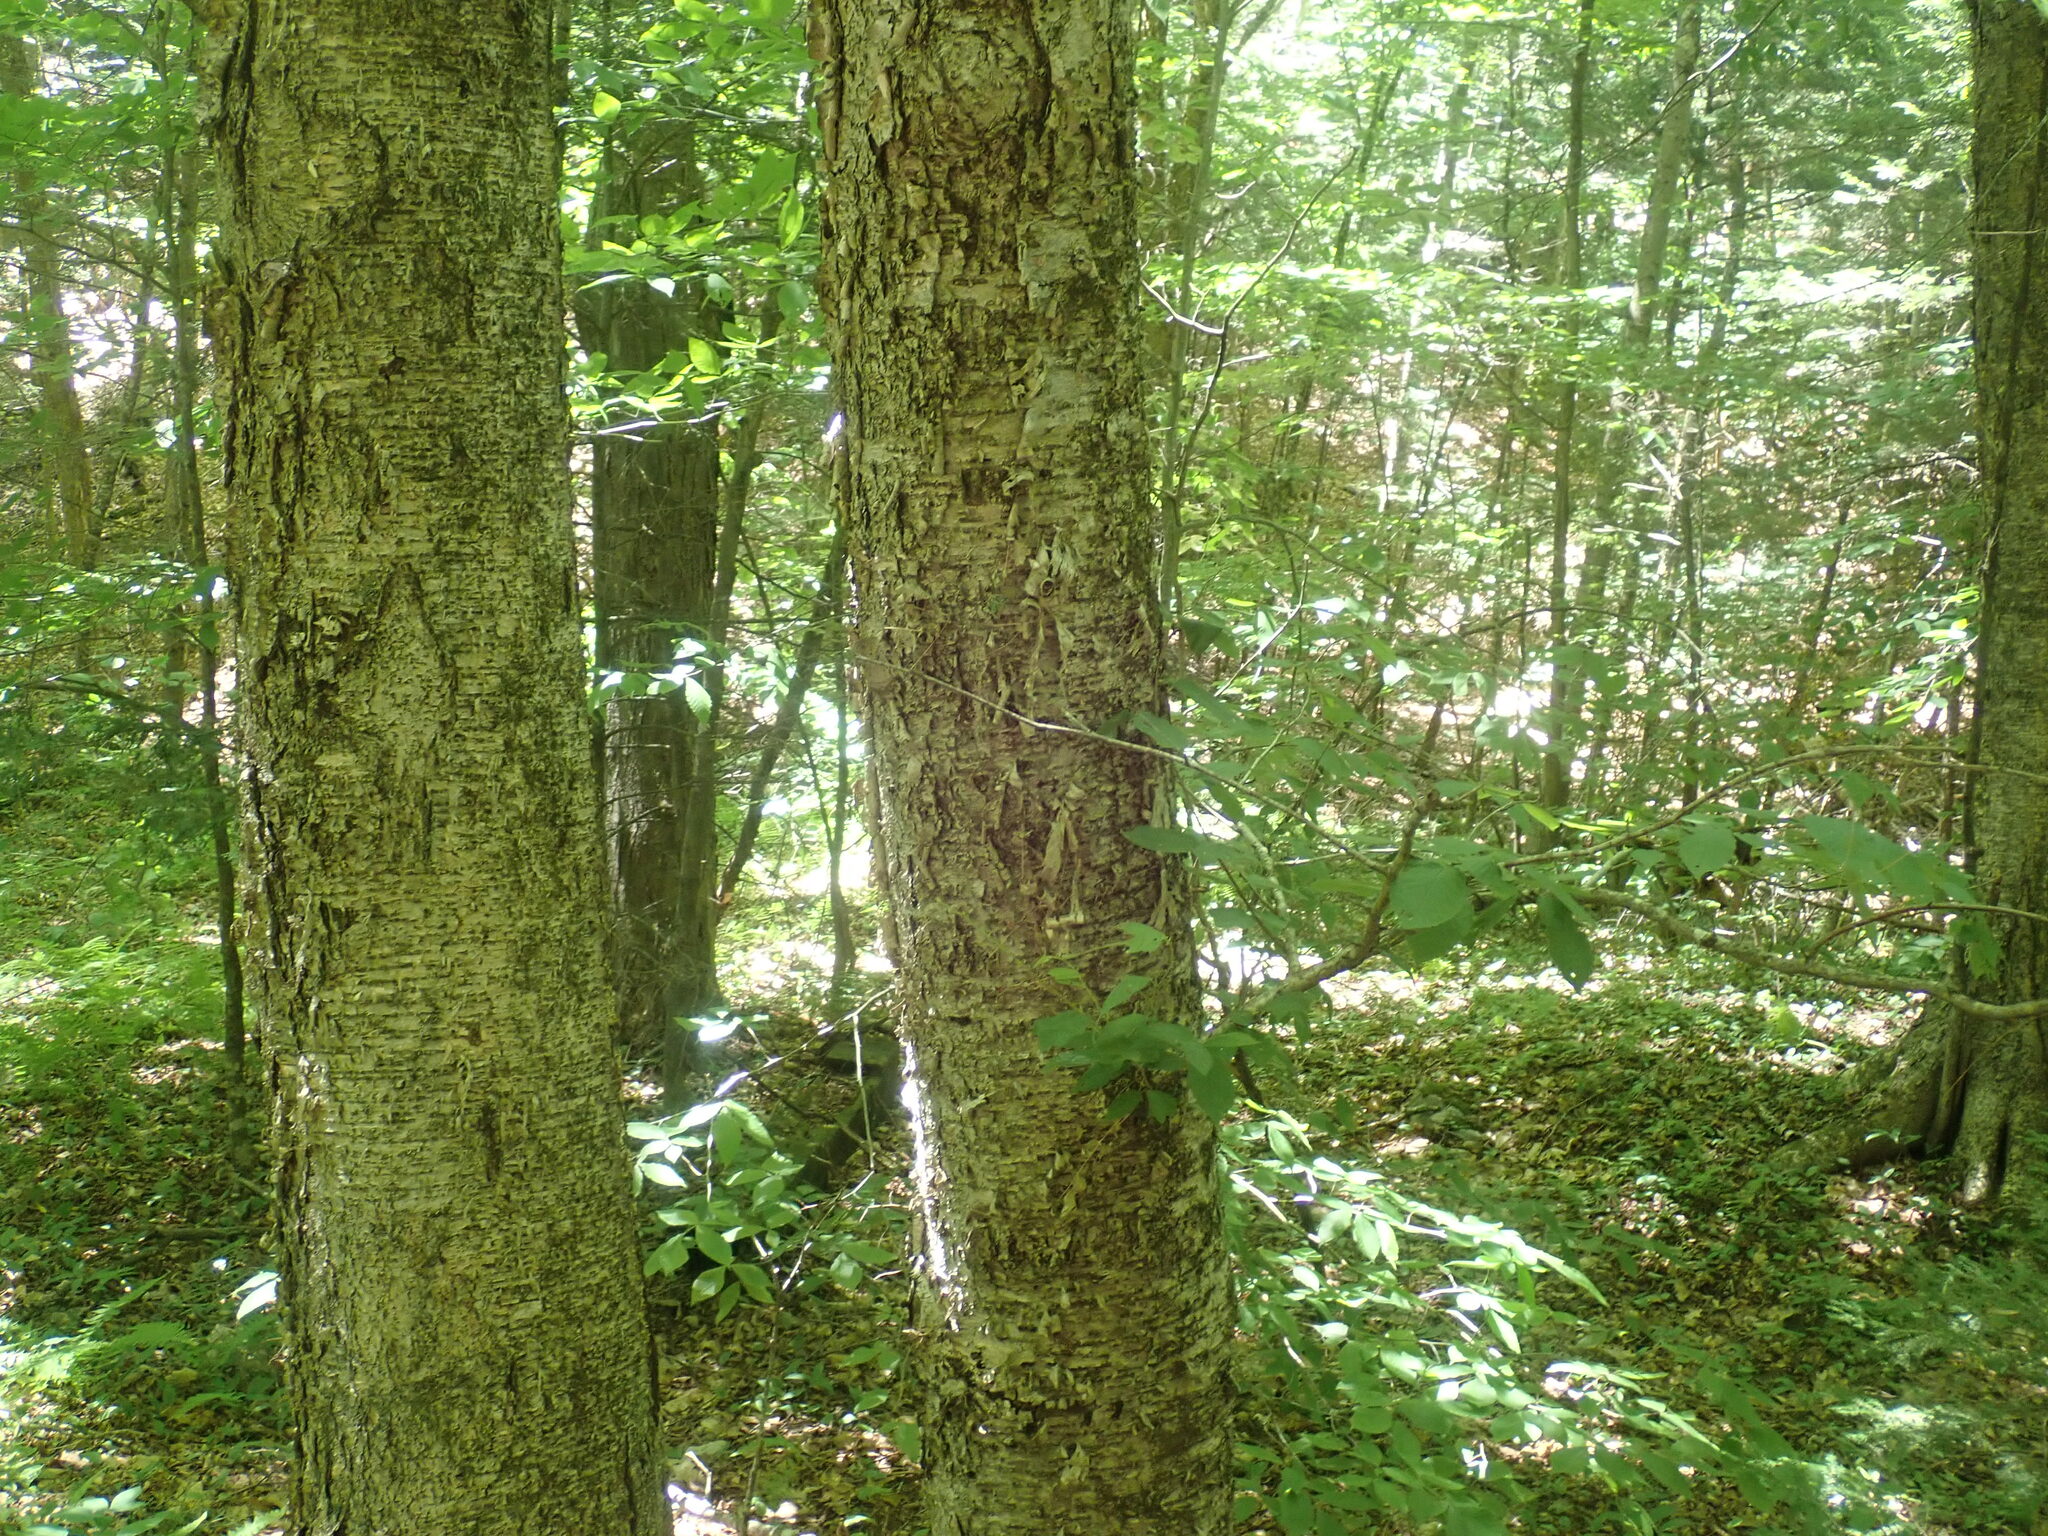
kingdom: Plantae
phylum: Tracheophyta
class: Magnoliopsida
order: Fagales
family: Betulaceae
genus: Betula
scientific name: Betula alleghaniensis
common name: Yellow birch
